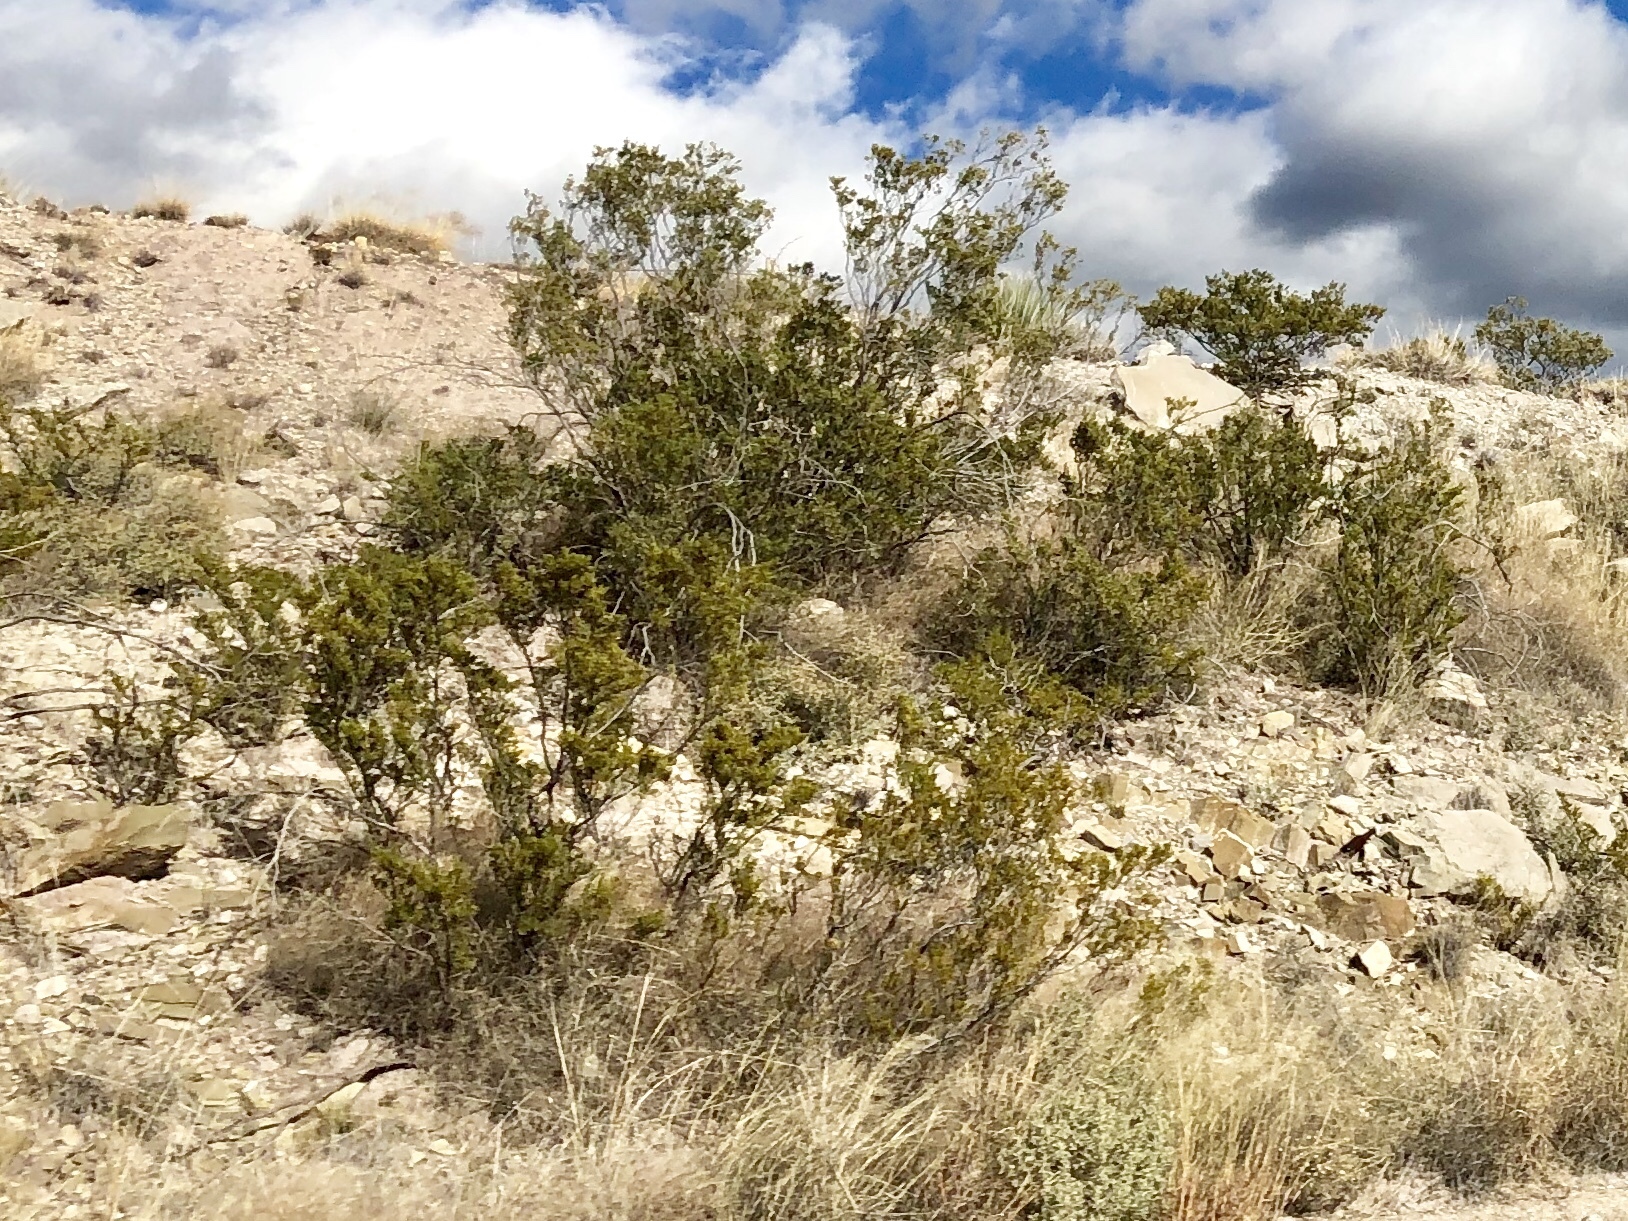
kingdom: Plantae
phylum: Tracheophyta
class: Magnoliopsida
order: Zygophyllales
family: Zygophyllaceae
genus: Larrea
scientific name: Larrea tridentata
